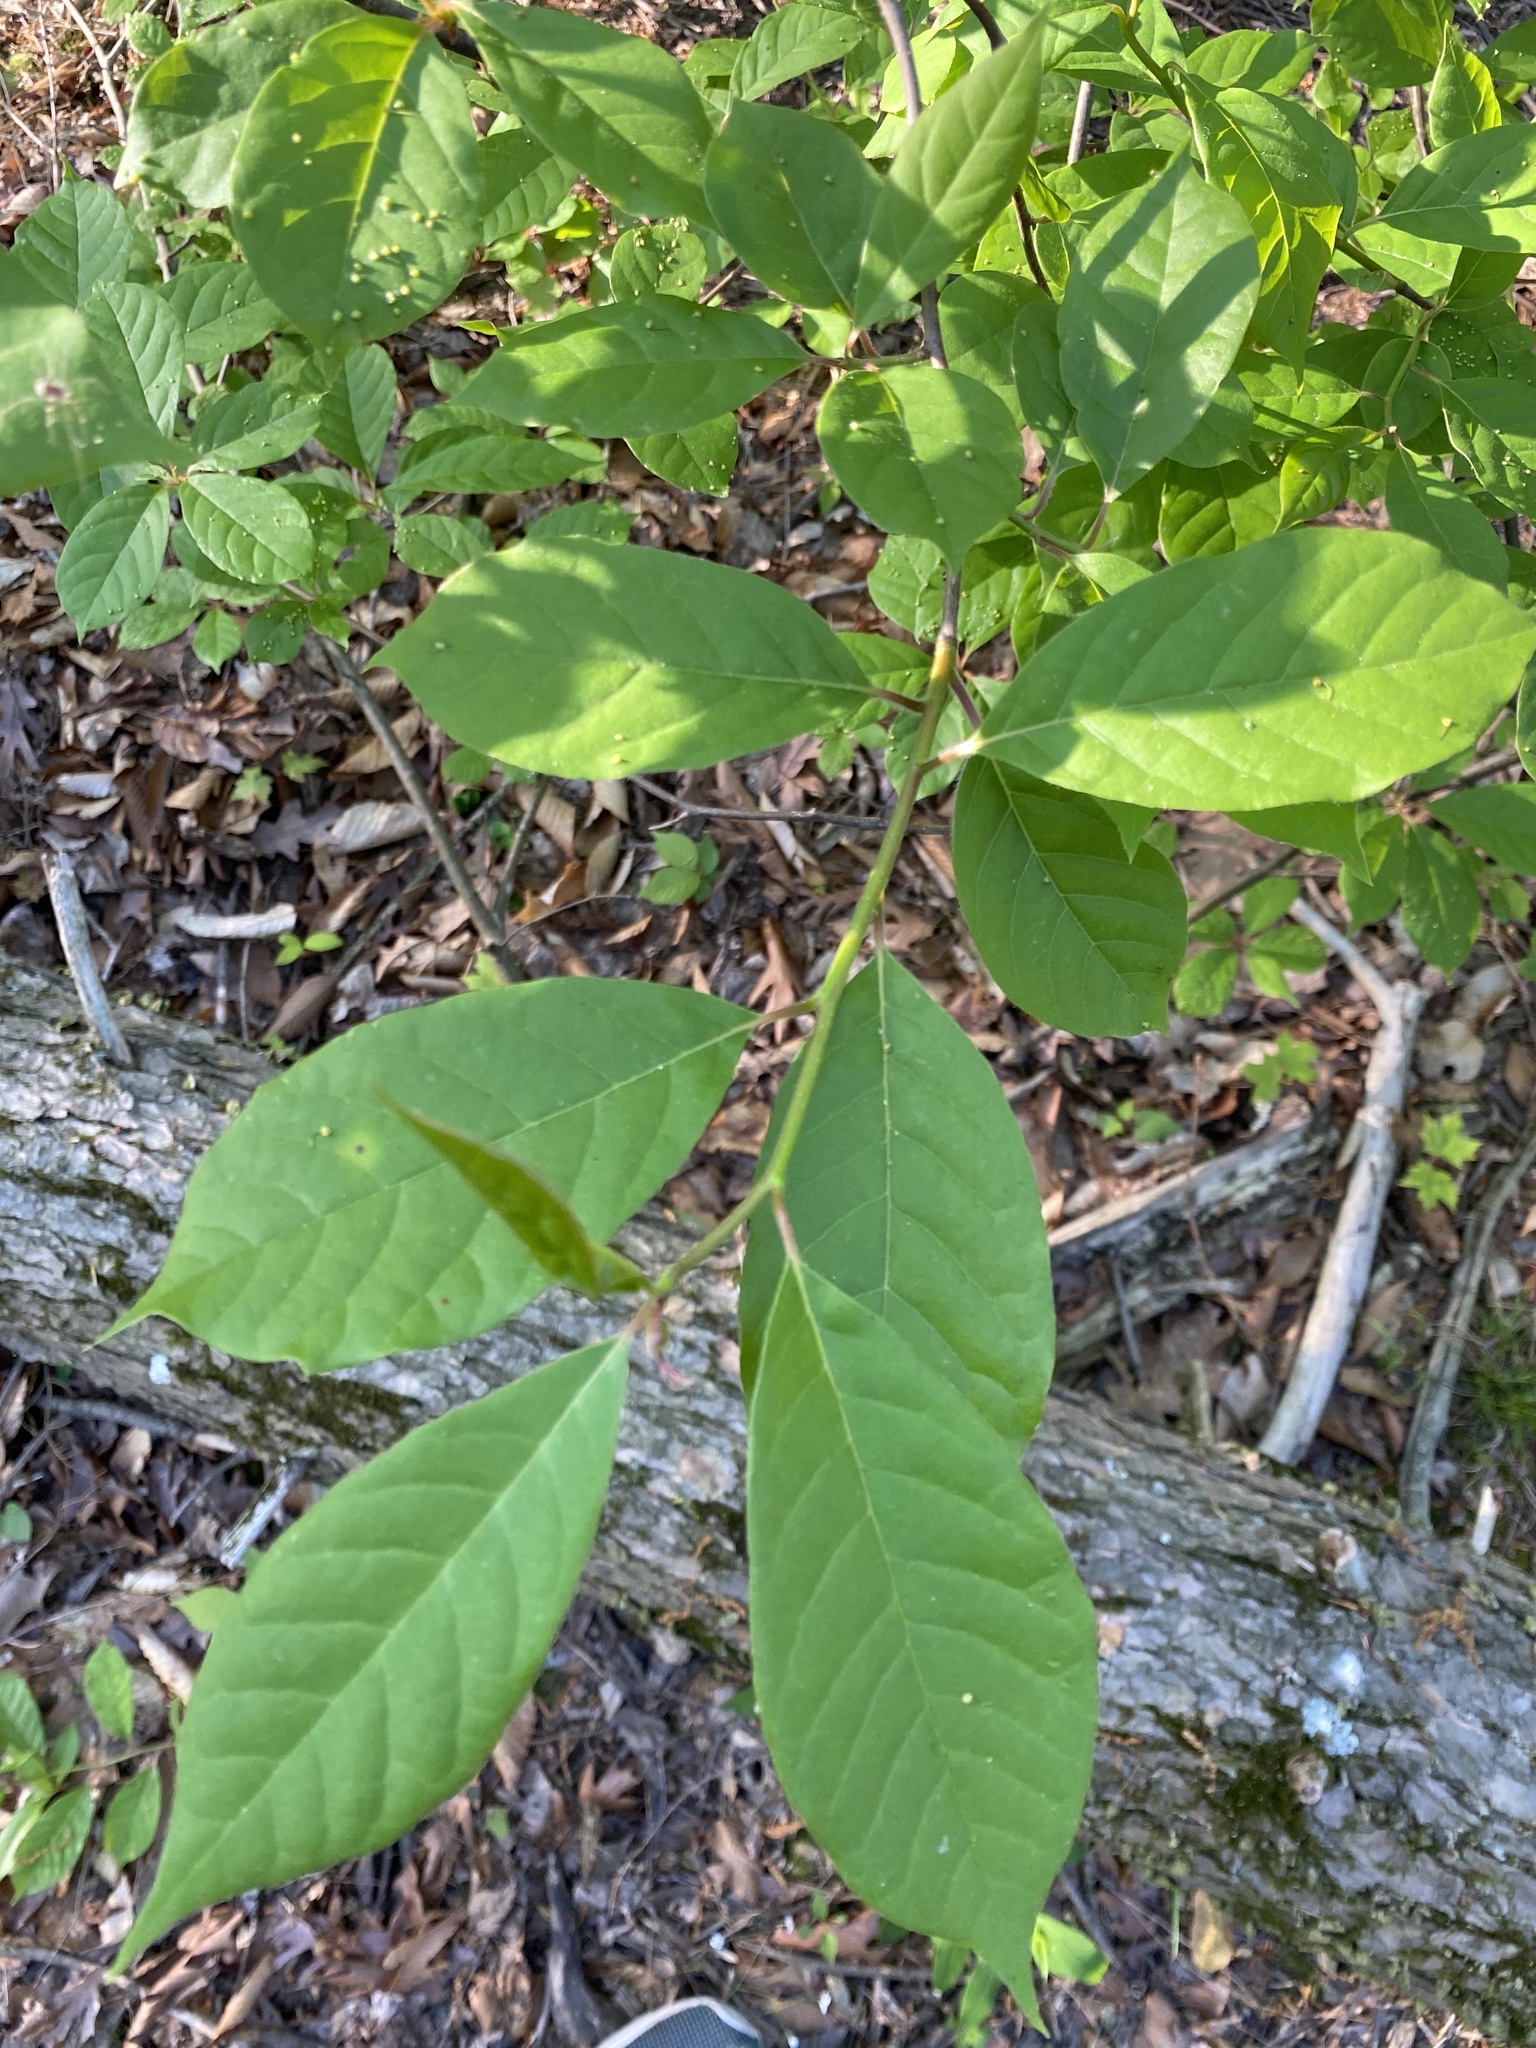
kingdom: Plantae
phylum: Tracheophyta
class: Magnoliopsida
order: Cornales
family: Nyssaceae
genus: Nyssa
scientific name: Nyssa sylvatica
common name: Black tupelo
